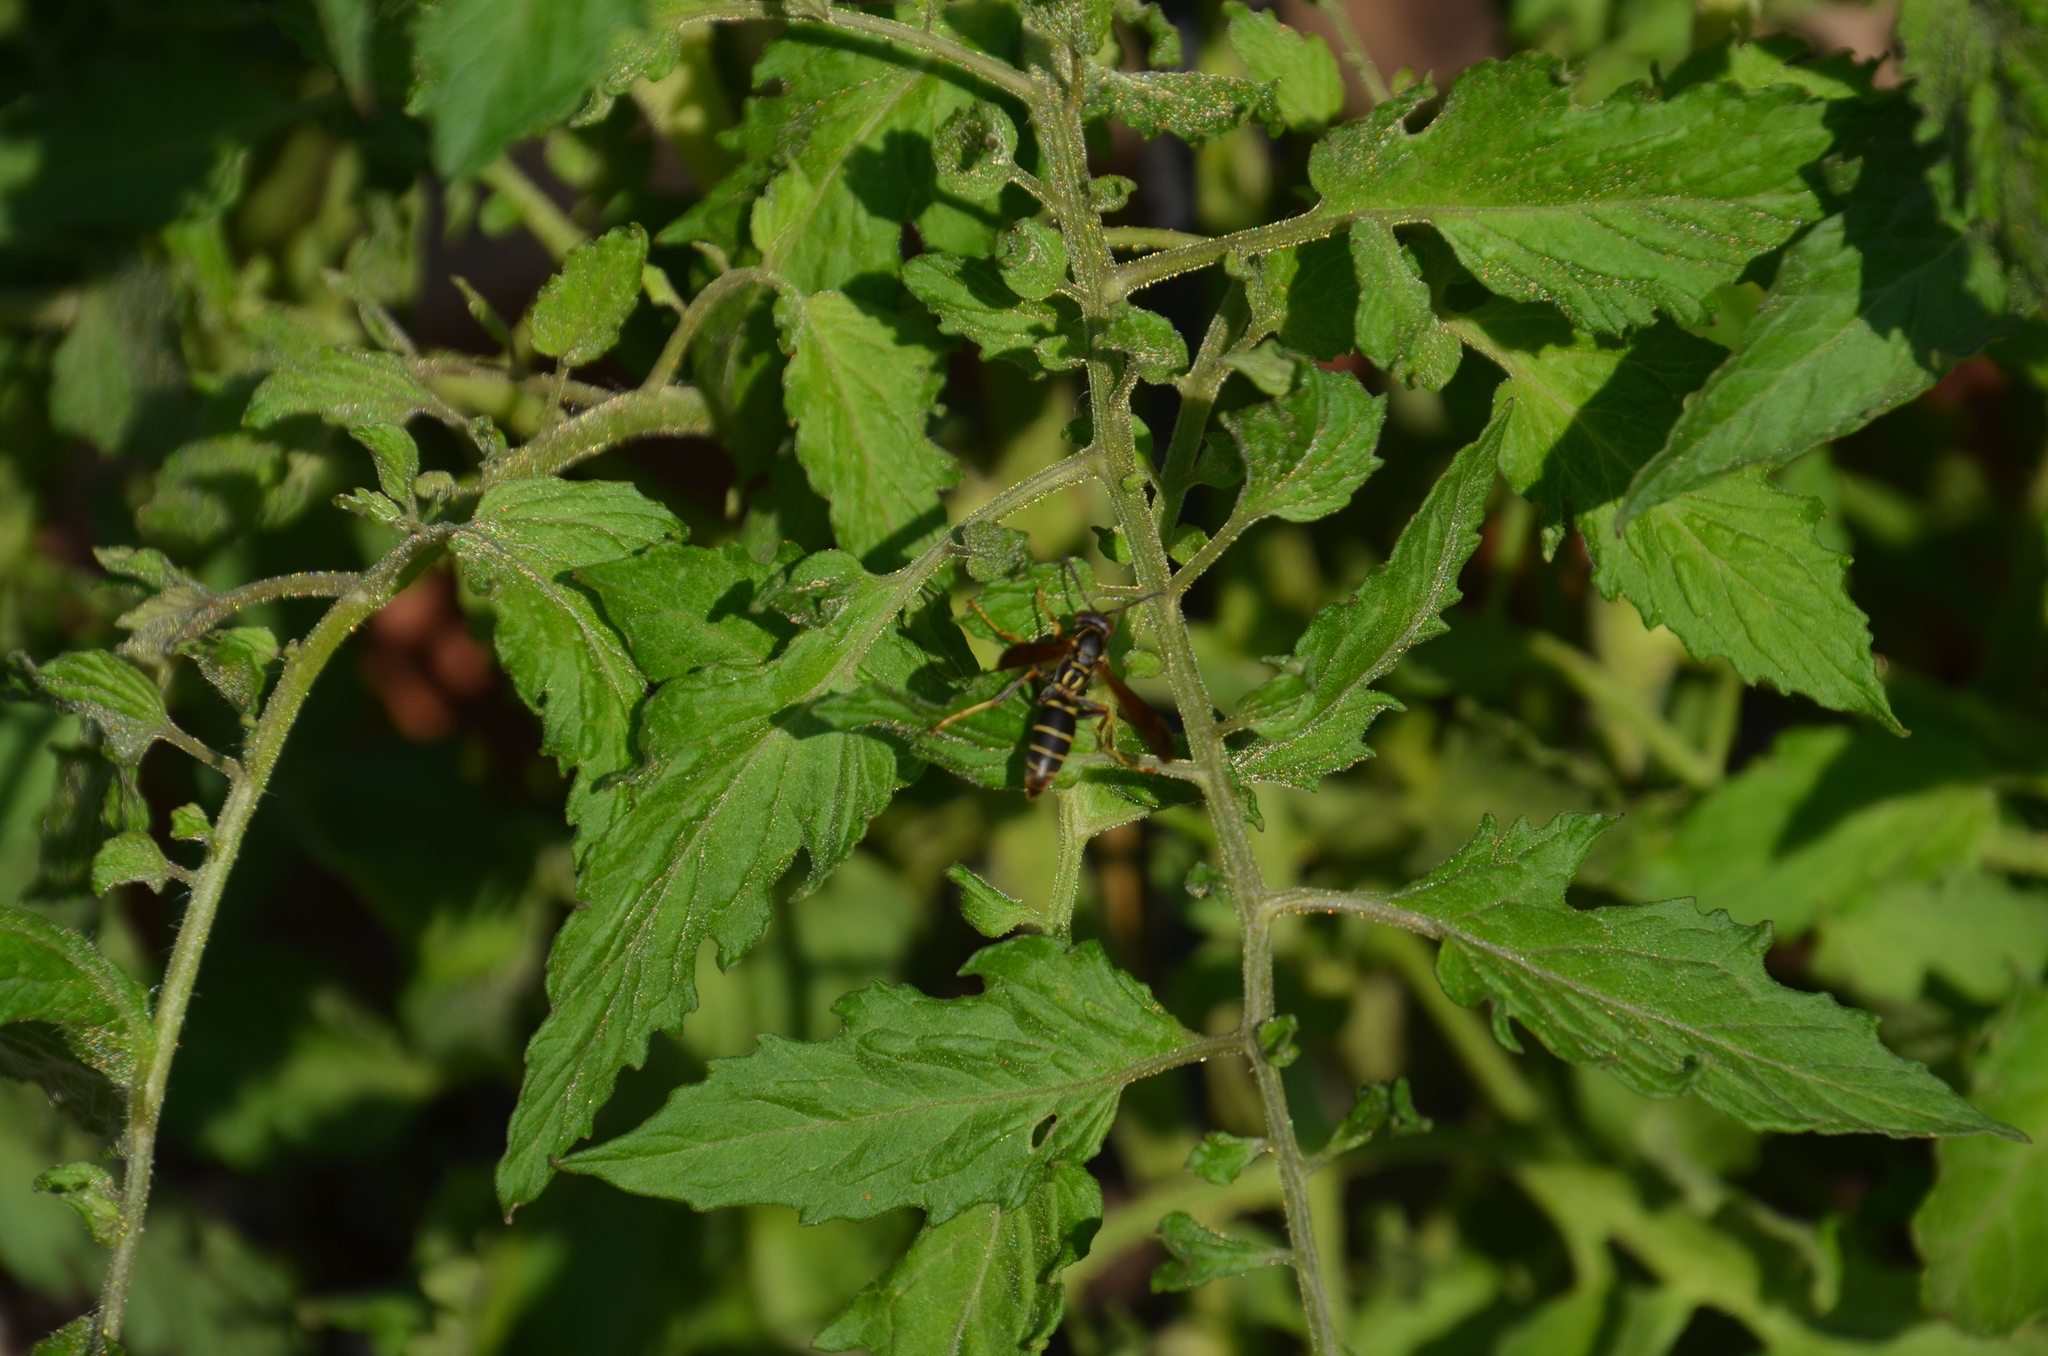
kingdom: Animalia
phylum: Arthropoda
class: Insecta
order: Hymenoptera
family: Eumenidae
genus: Polistes
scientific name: Polistes fuscatus
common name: Dark paper wasp
